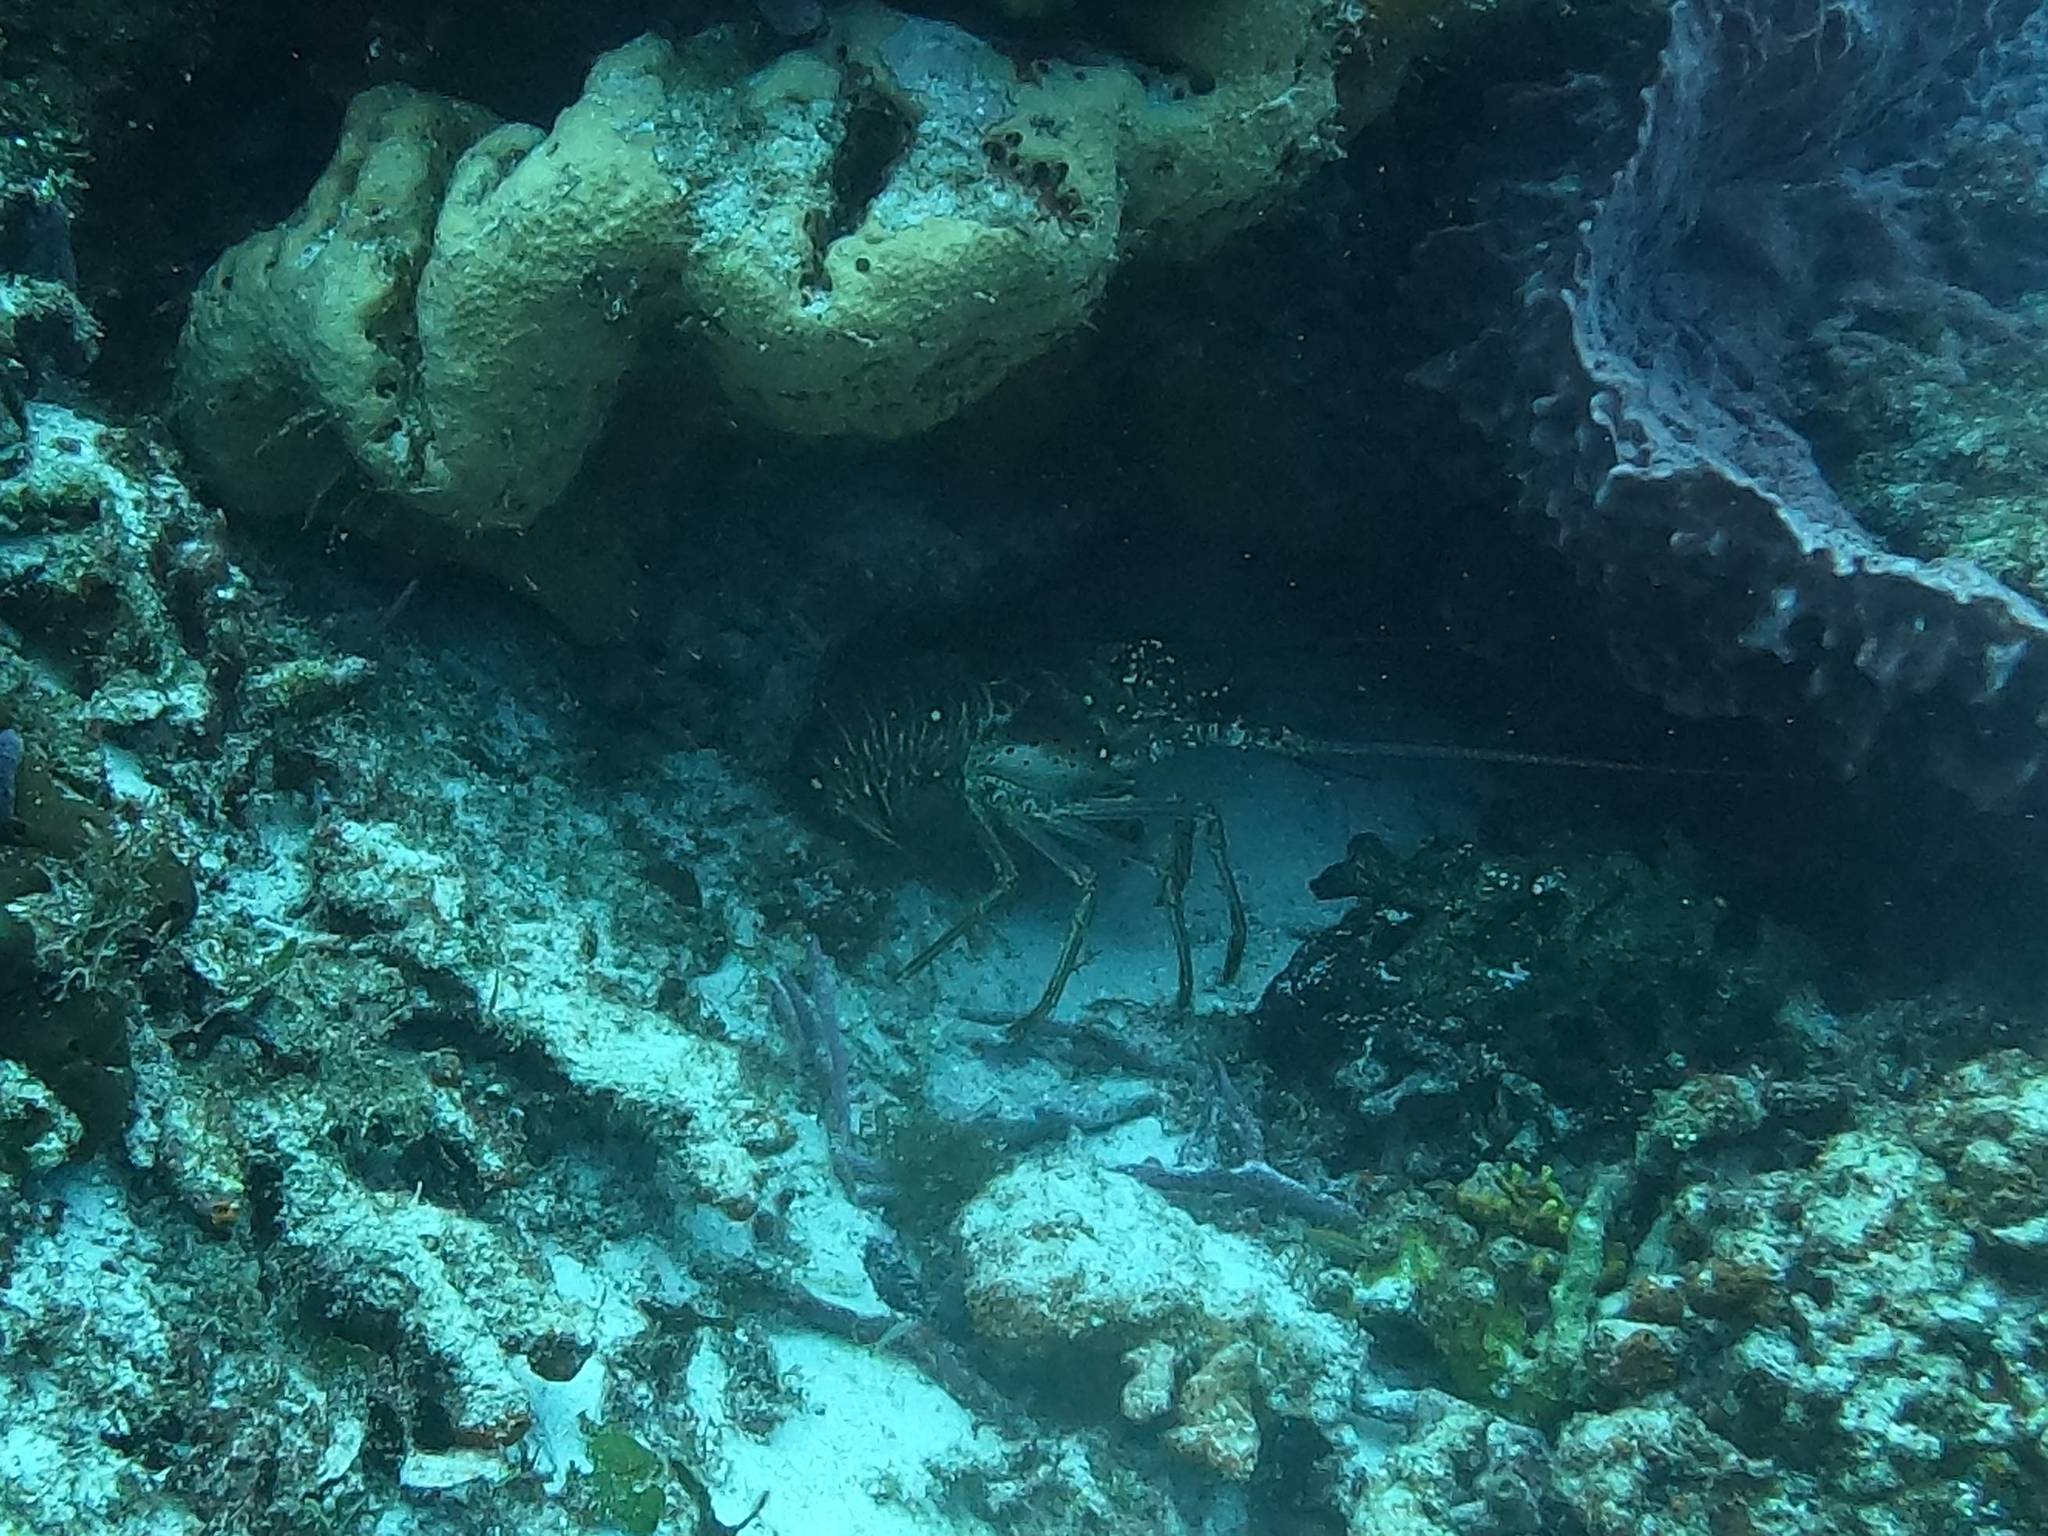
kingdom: Animalia
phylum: Arthropoda
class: Malacostraca
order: Decapoda
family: Palinuridae
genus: Panulirus
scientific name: Panulirus argus
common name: Caribbean spiny lobster
